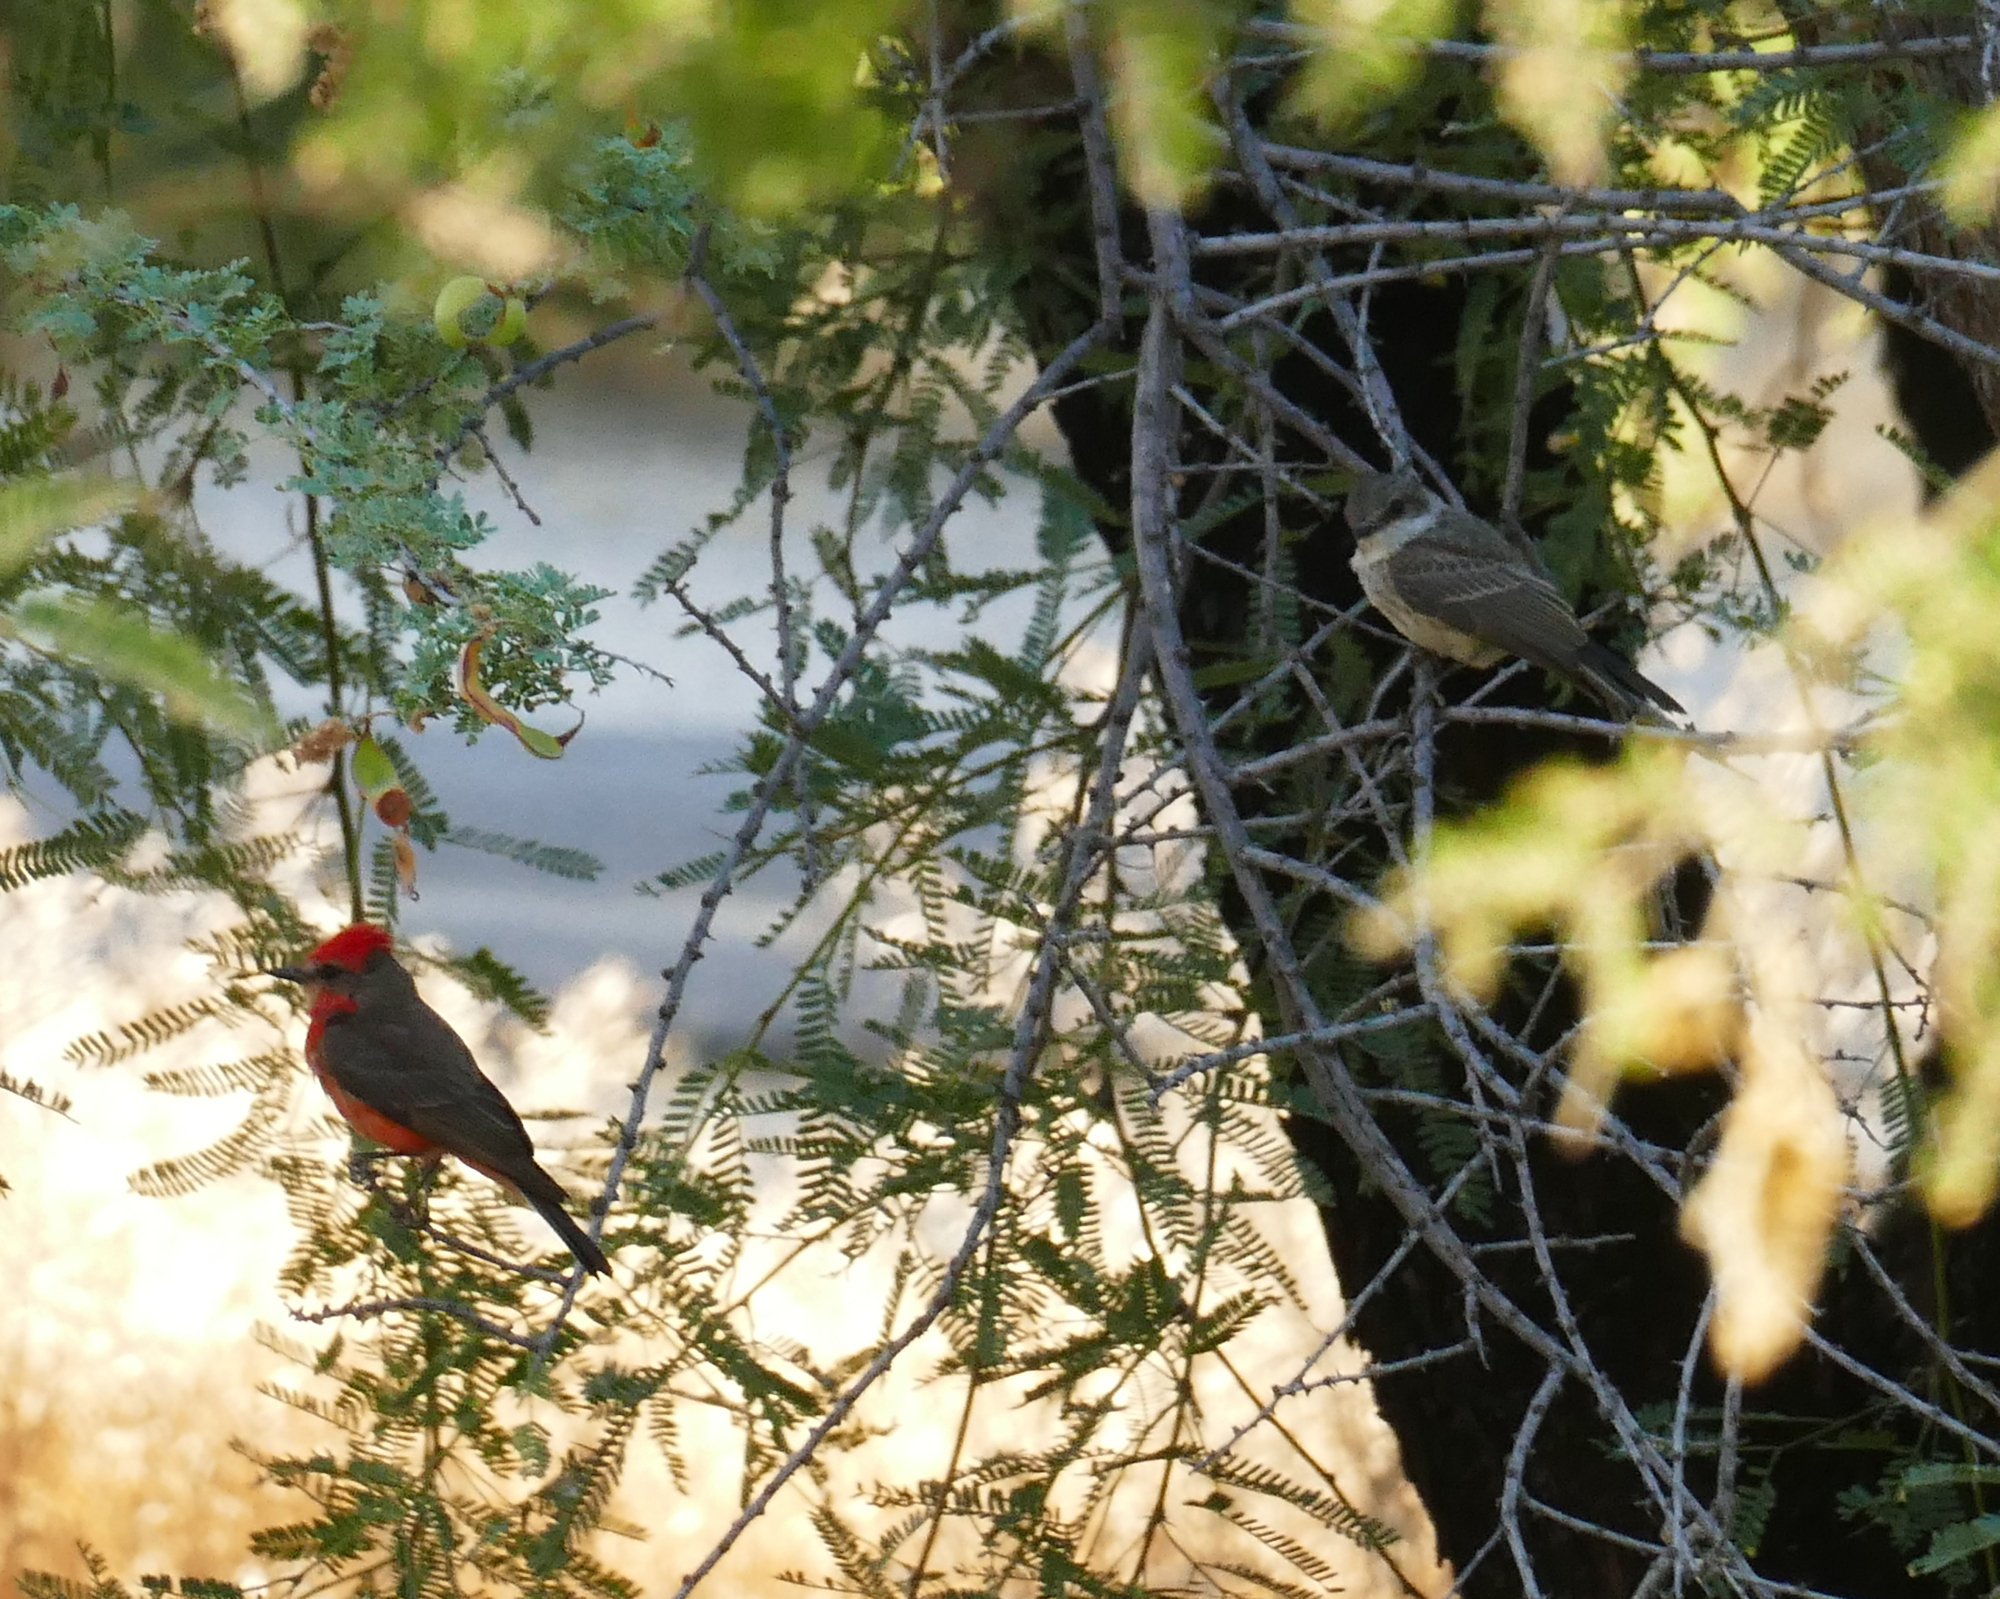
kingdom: Animalia
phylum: Chordata
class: Aves
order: Passeriformes
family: Tyrannidae
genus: Pyrocephalus
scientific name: Pyrocephalus rubinus
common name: Vermilion flycatcher
